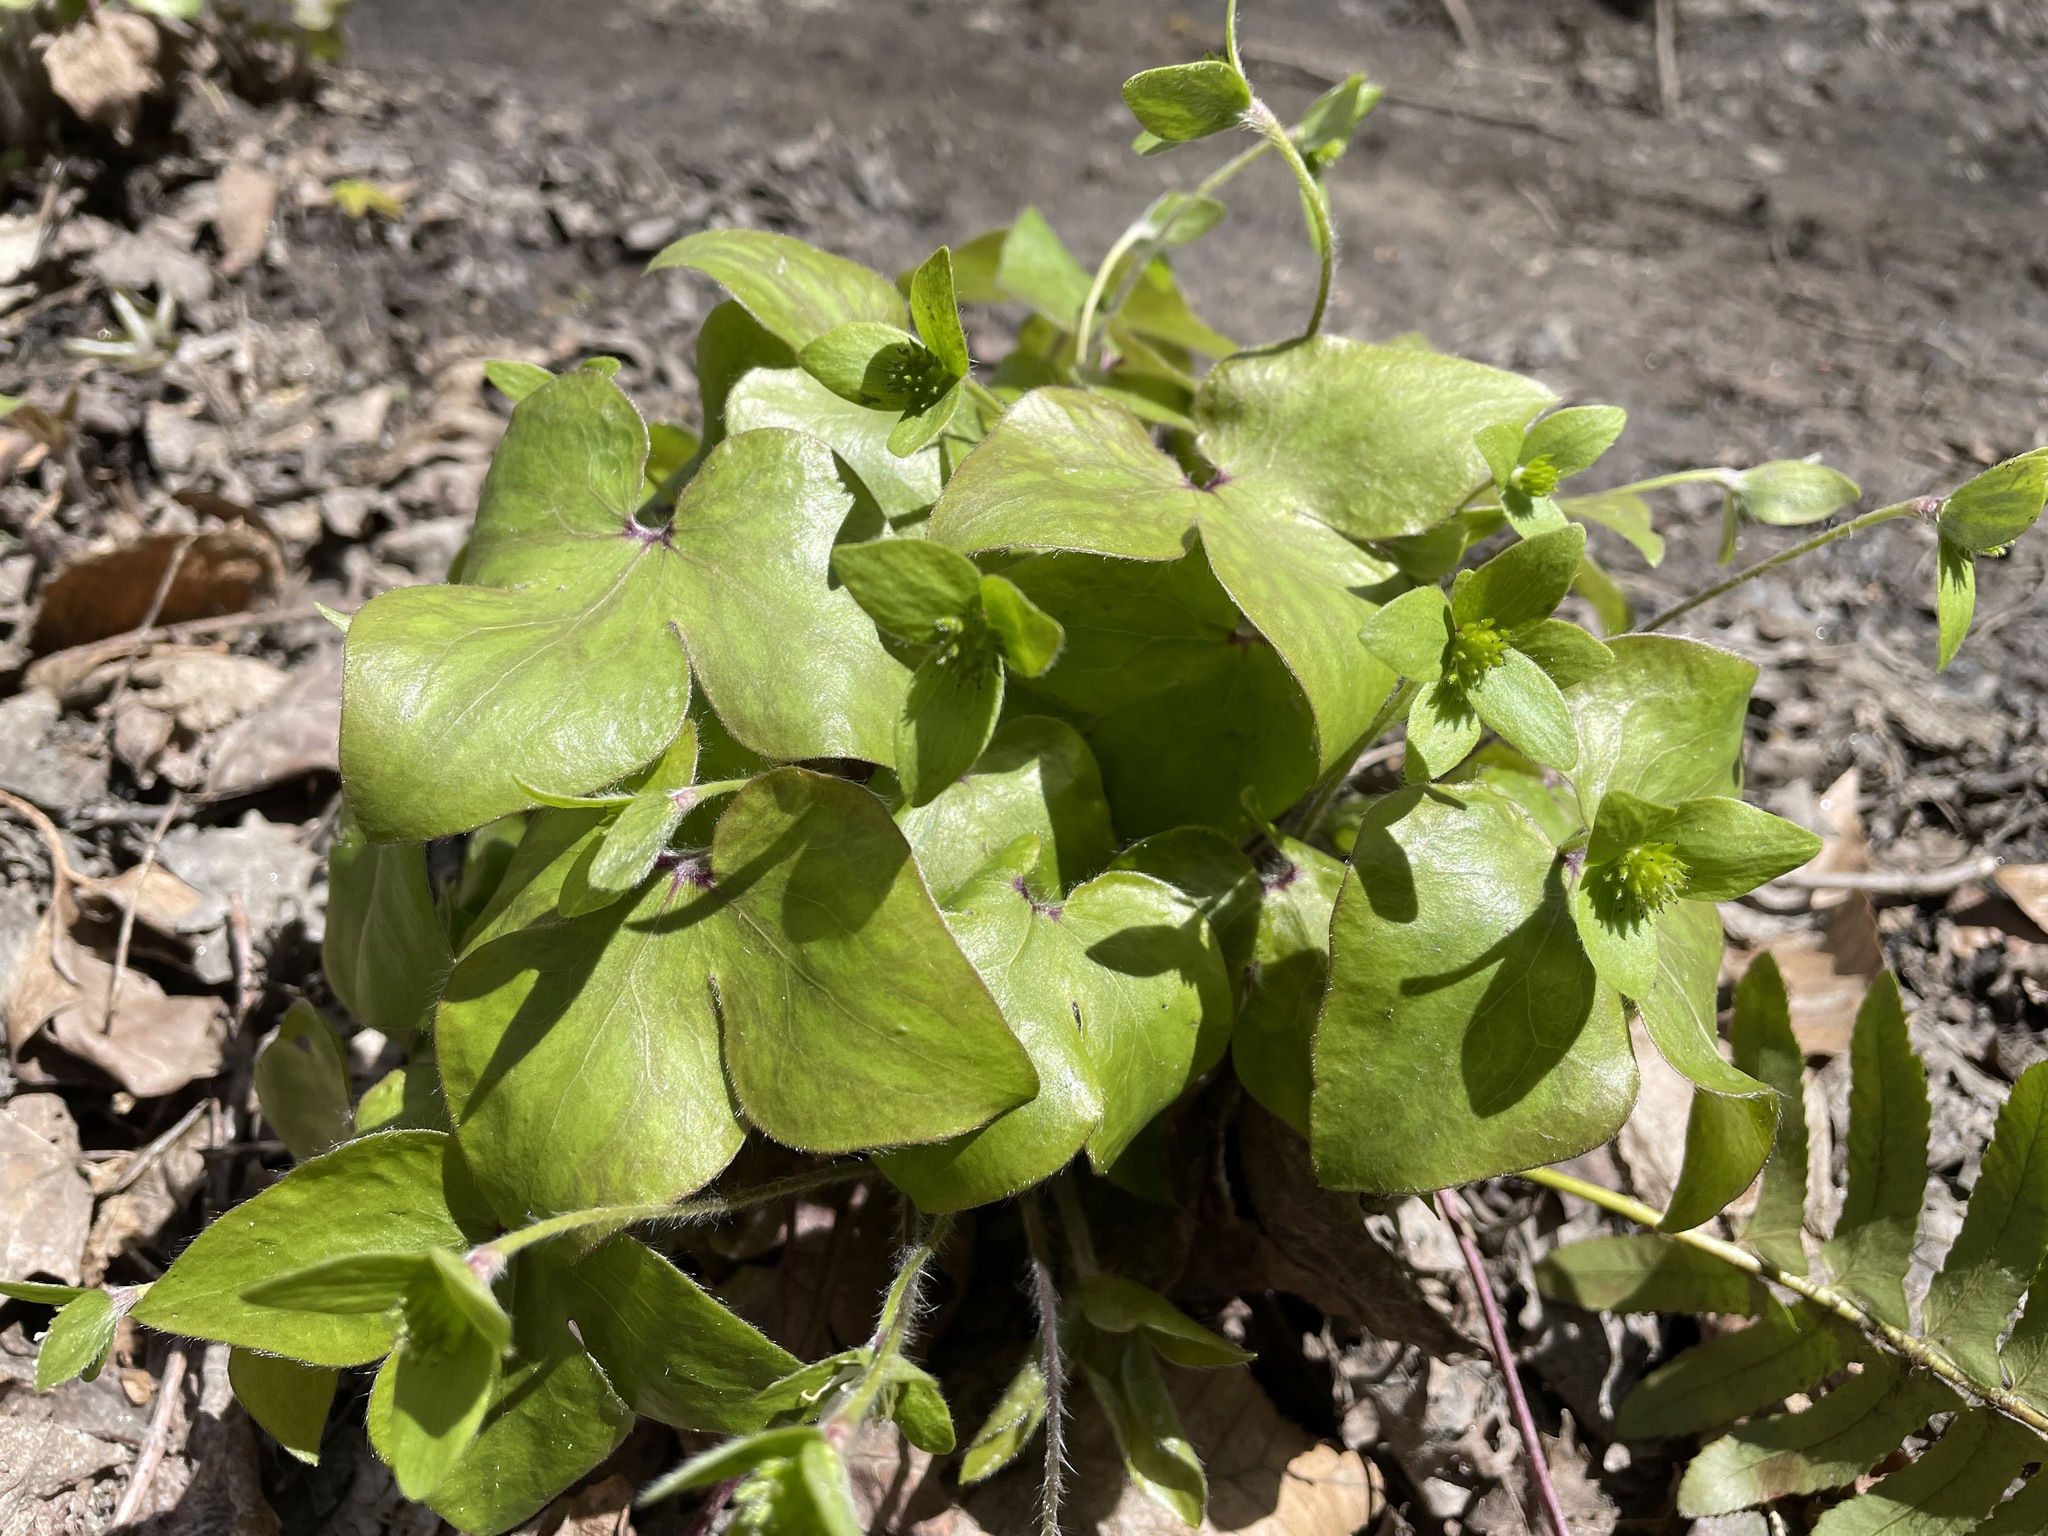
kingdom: Plantae
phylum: Tracheophyta
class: Magnoliopsida
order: Ranunculales
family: Ranunculaceae
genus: Hepatica
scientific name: Hepatica acutiloba
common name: Sharp-lobed hepatica
